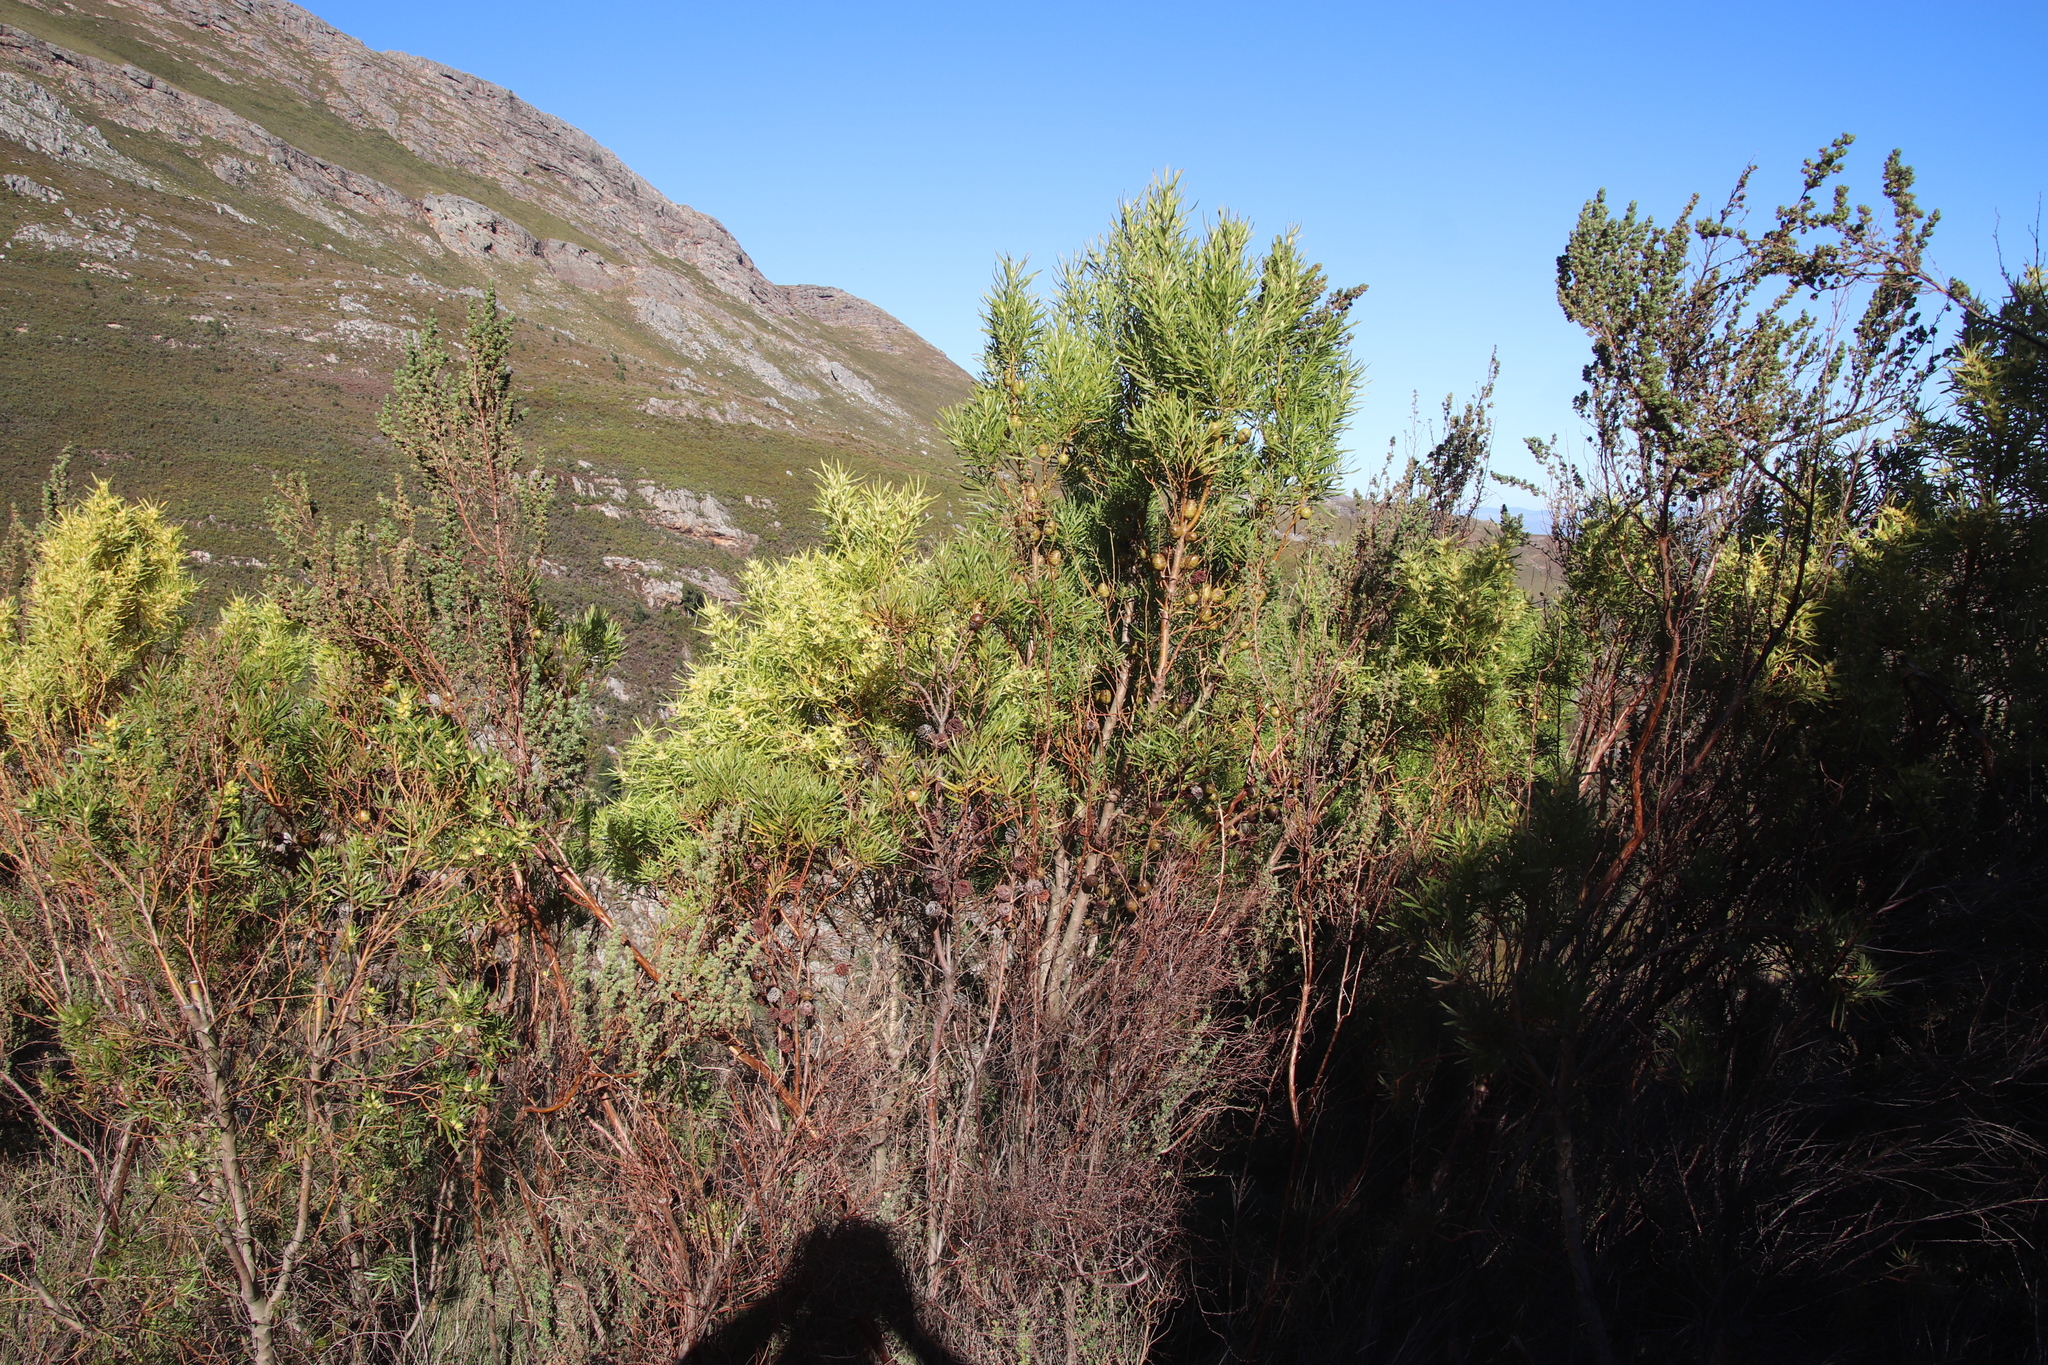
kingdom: Plantae
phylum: Tracheophyta
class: Magnoliopsida
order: Proteales
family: Proteaceae
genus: Leucadendron
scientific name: Leucadendron salicifolium
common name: Common stream conebush
